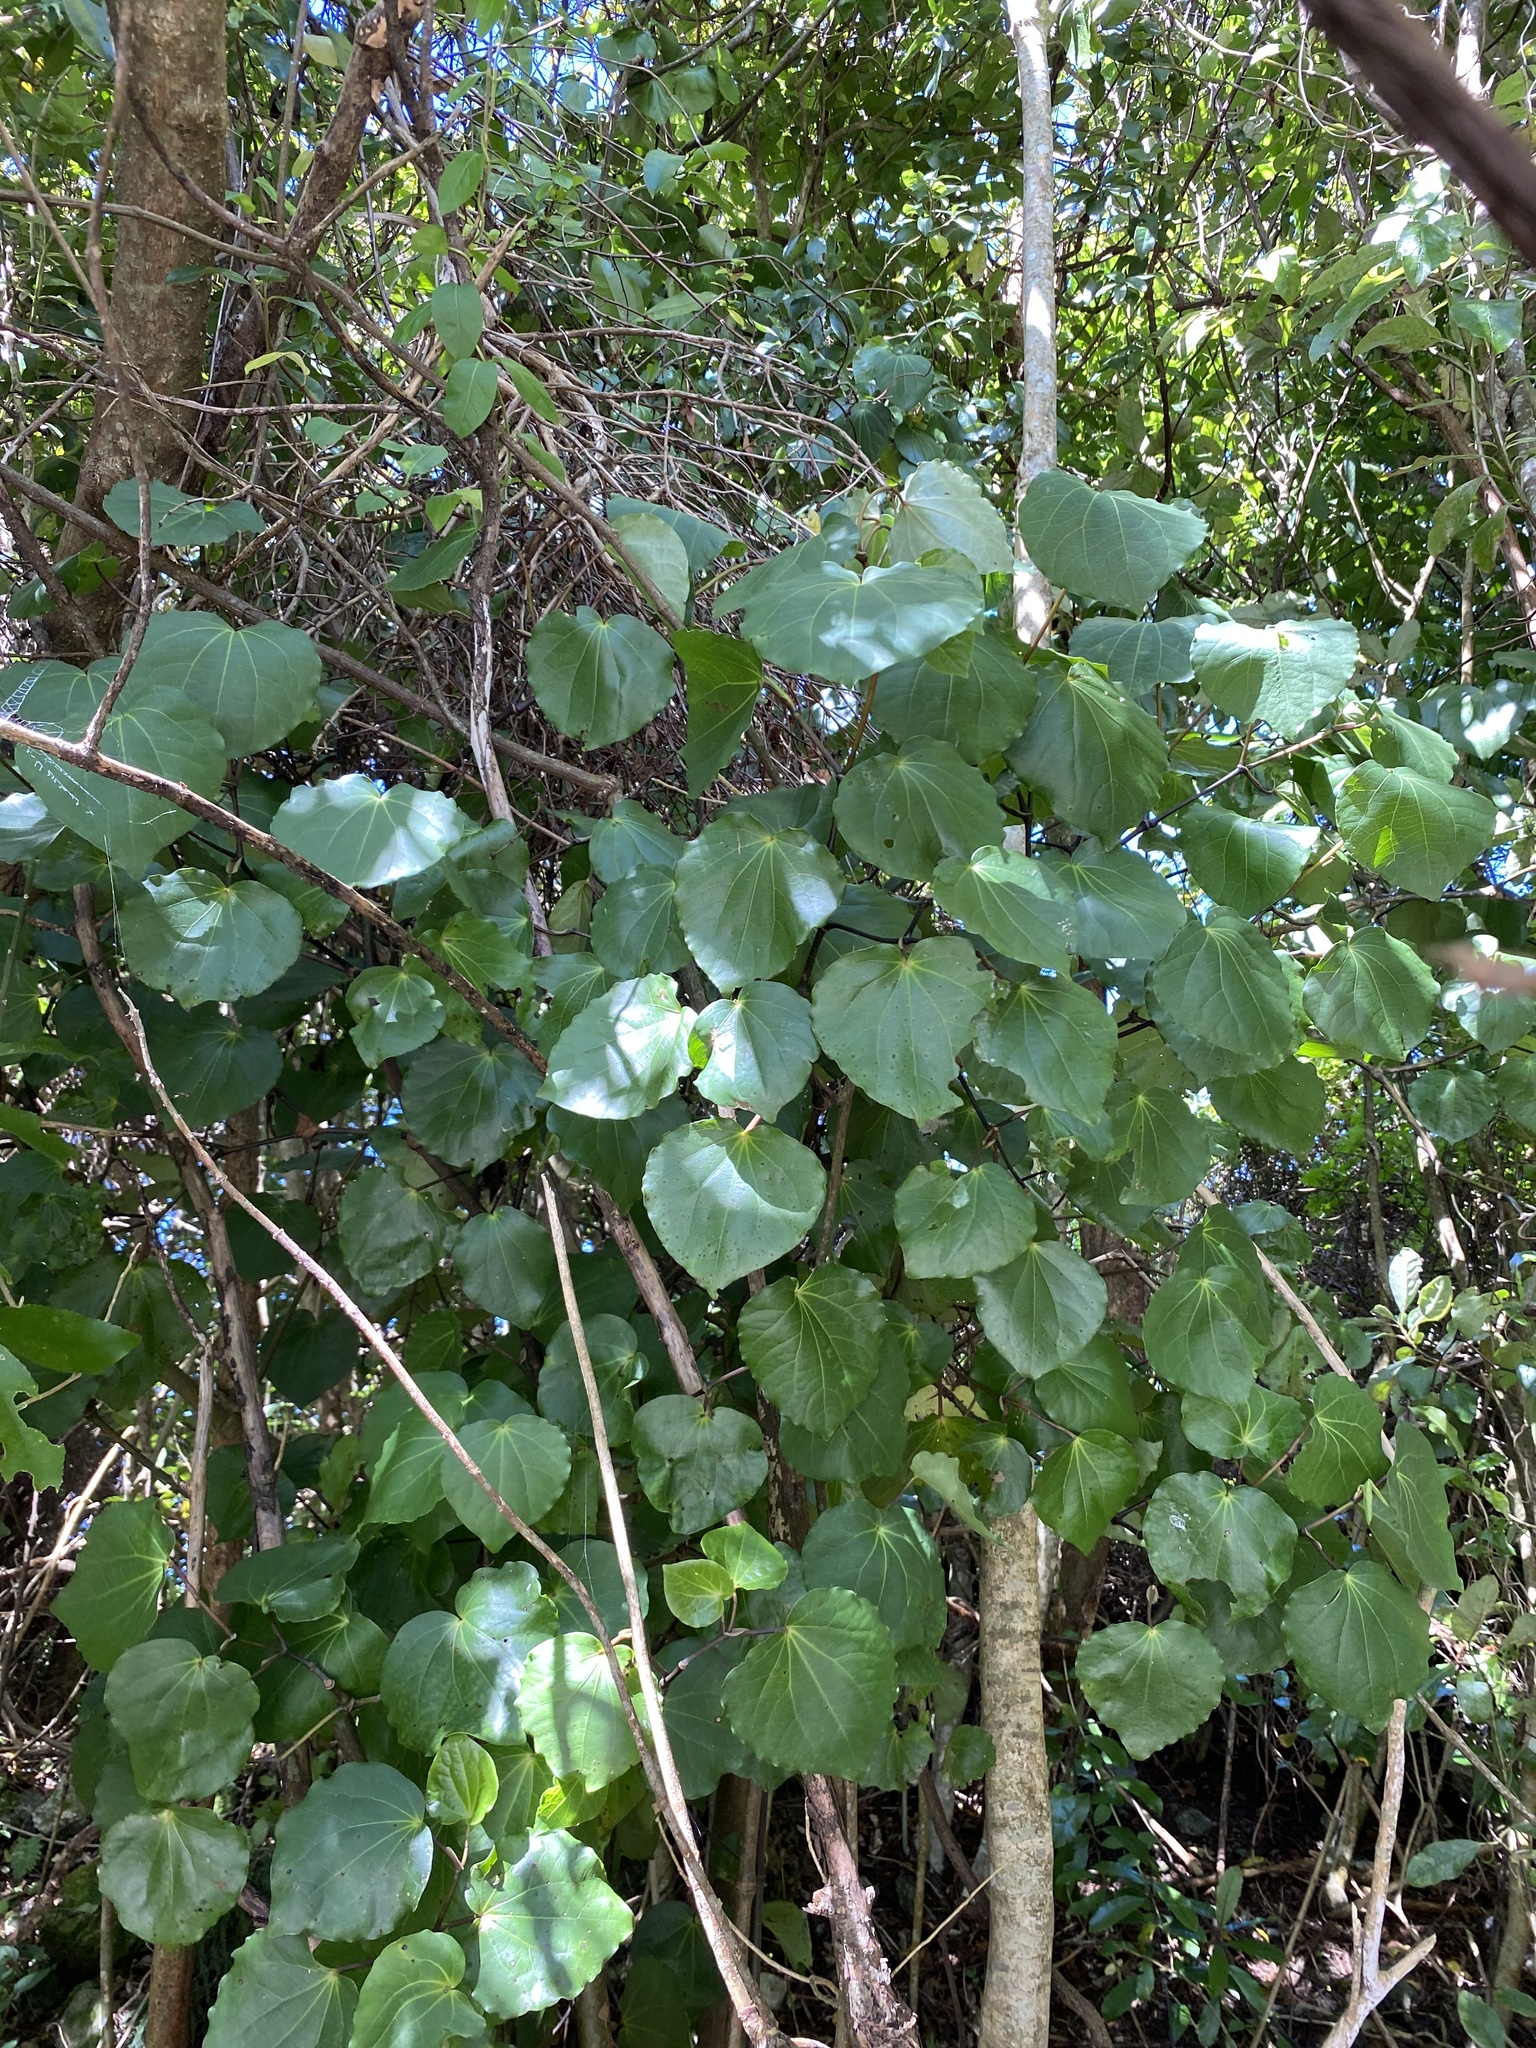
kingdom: Plantae
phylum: Tracheophyta
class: Magnoliopsida
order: Piperales
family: Piperaceae
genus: Macropiper
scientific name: Macropiper excelsum
